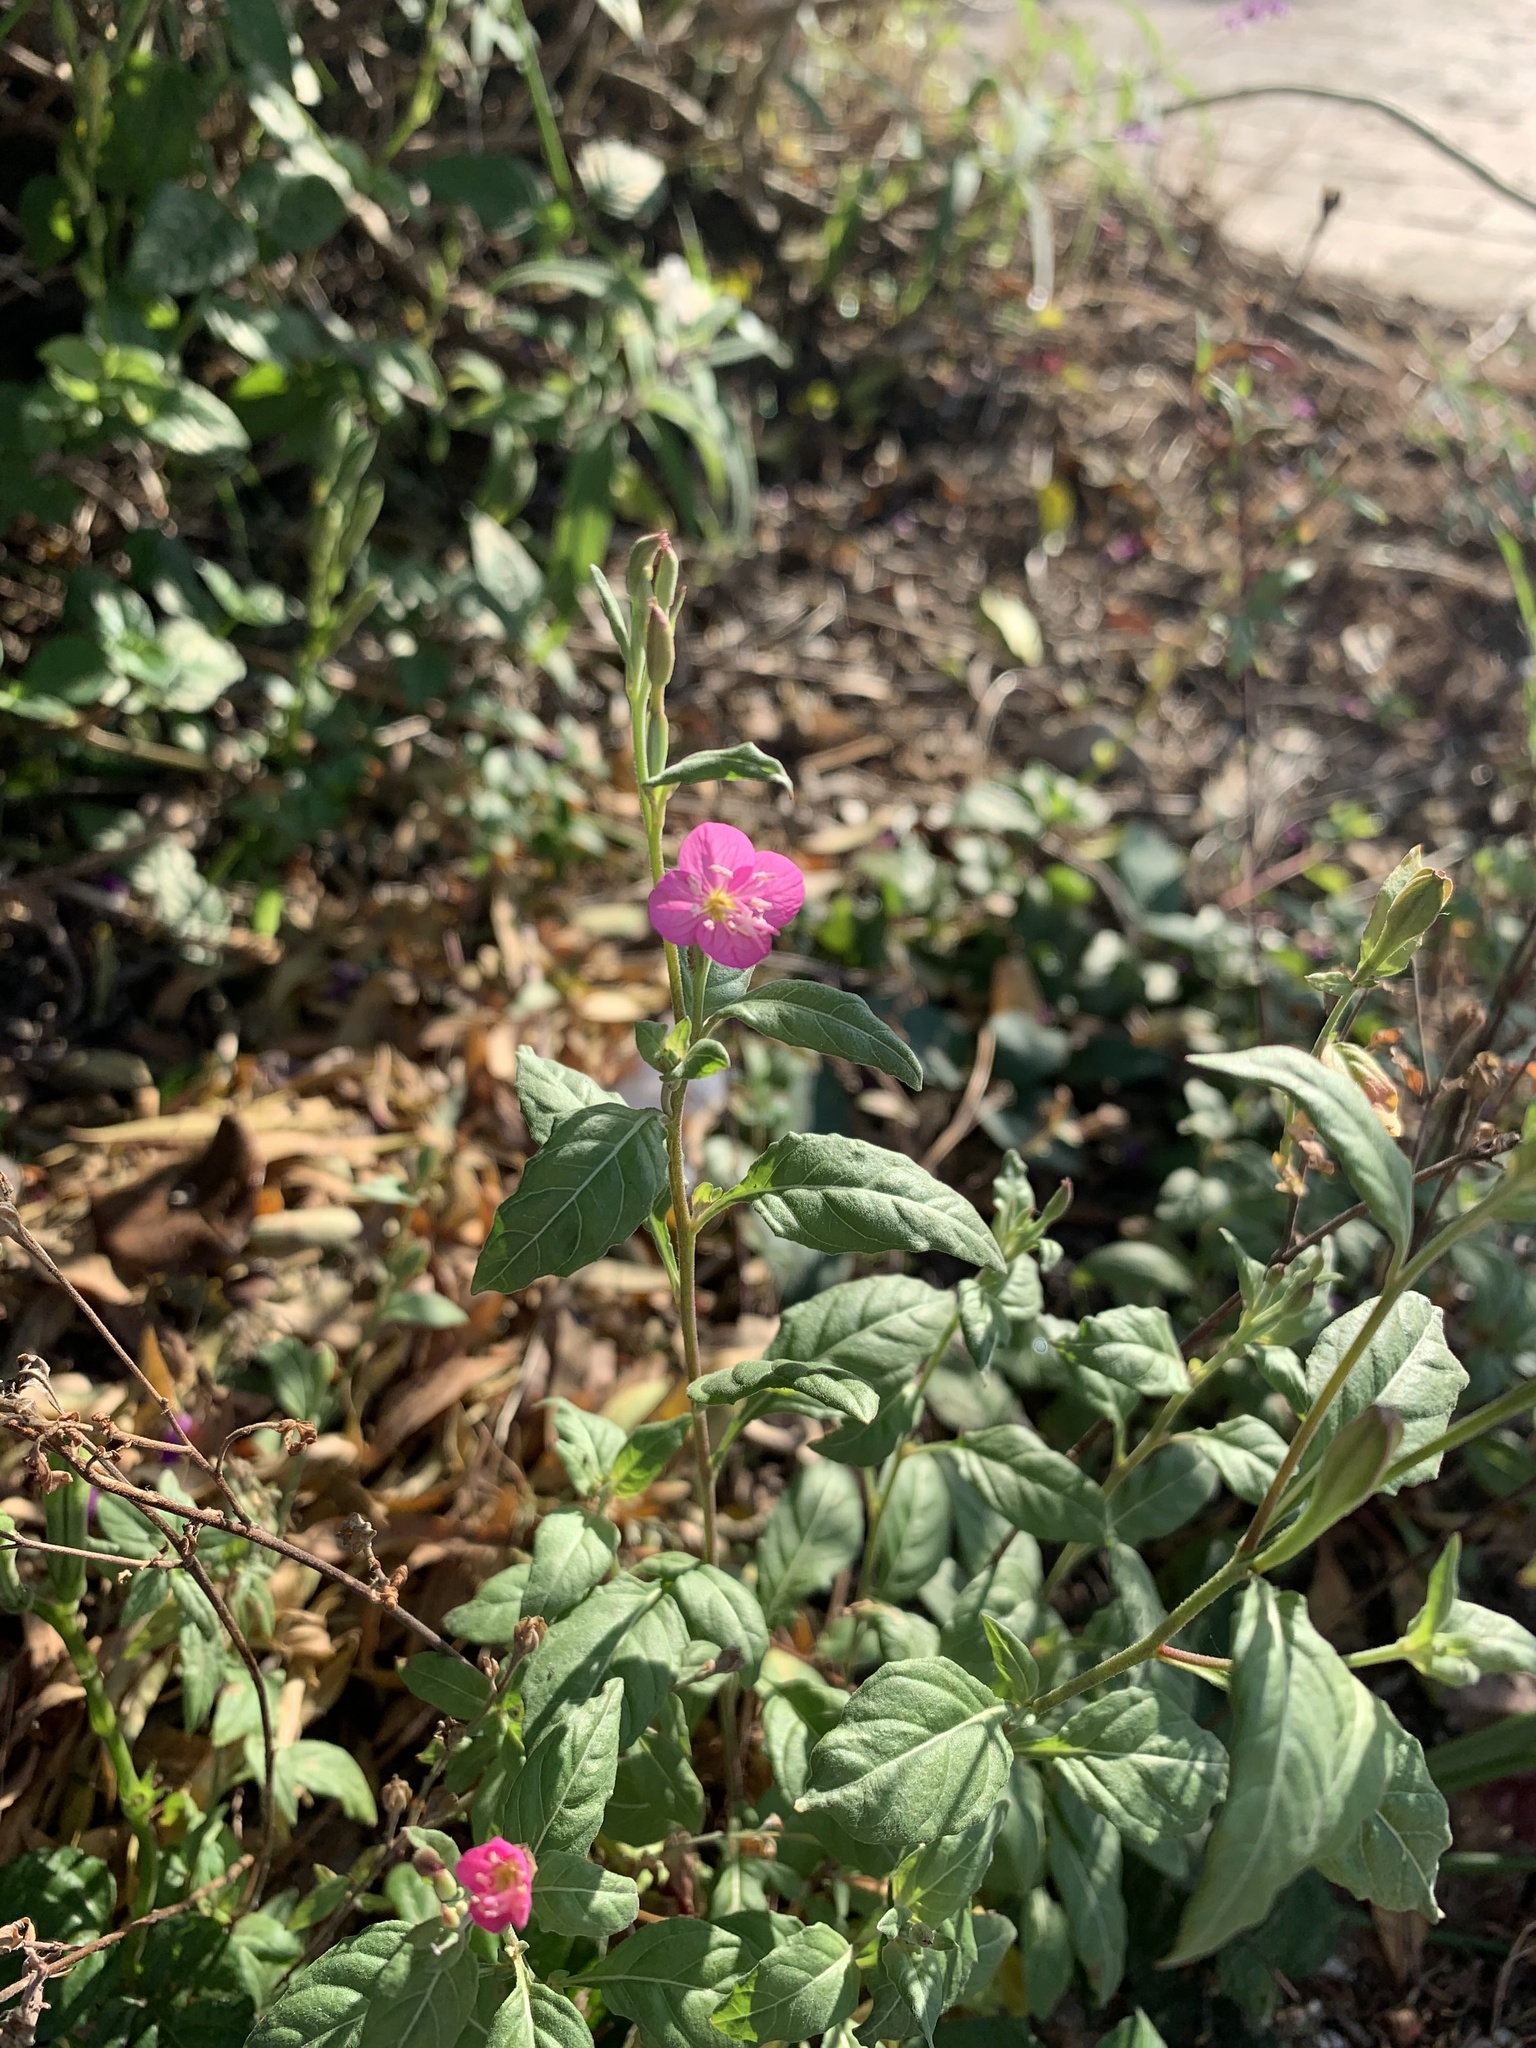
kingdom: Plantae
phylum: Tracheophyta
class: Magnoliopsida
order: Myrtales
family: Onagraceae
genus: Oenothera
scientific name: Oenothera rosea
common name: Rosy evening-primrose
